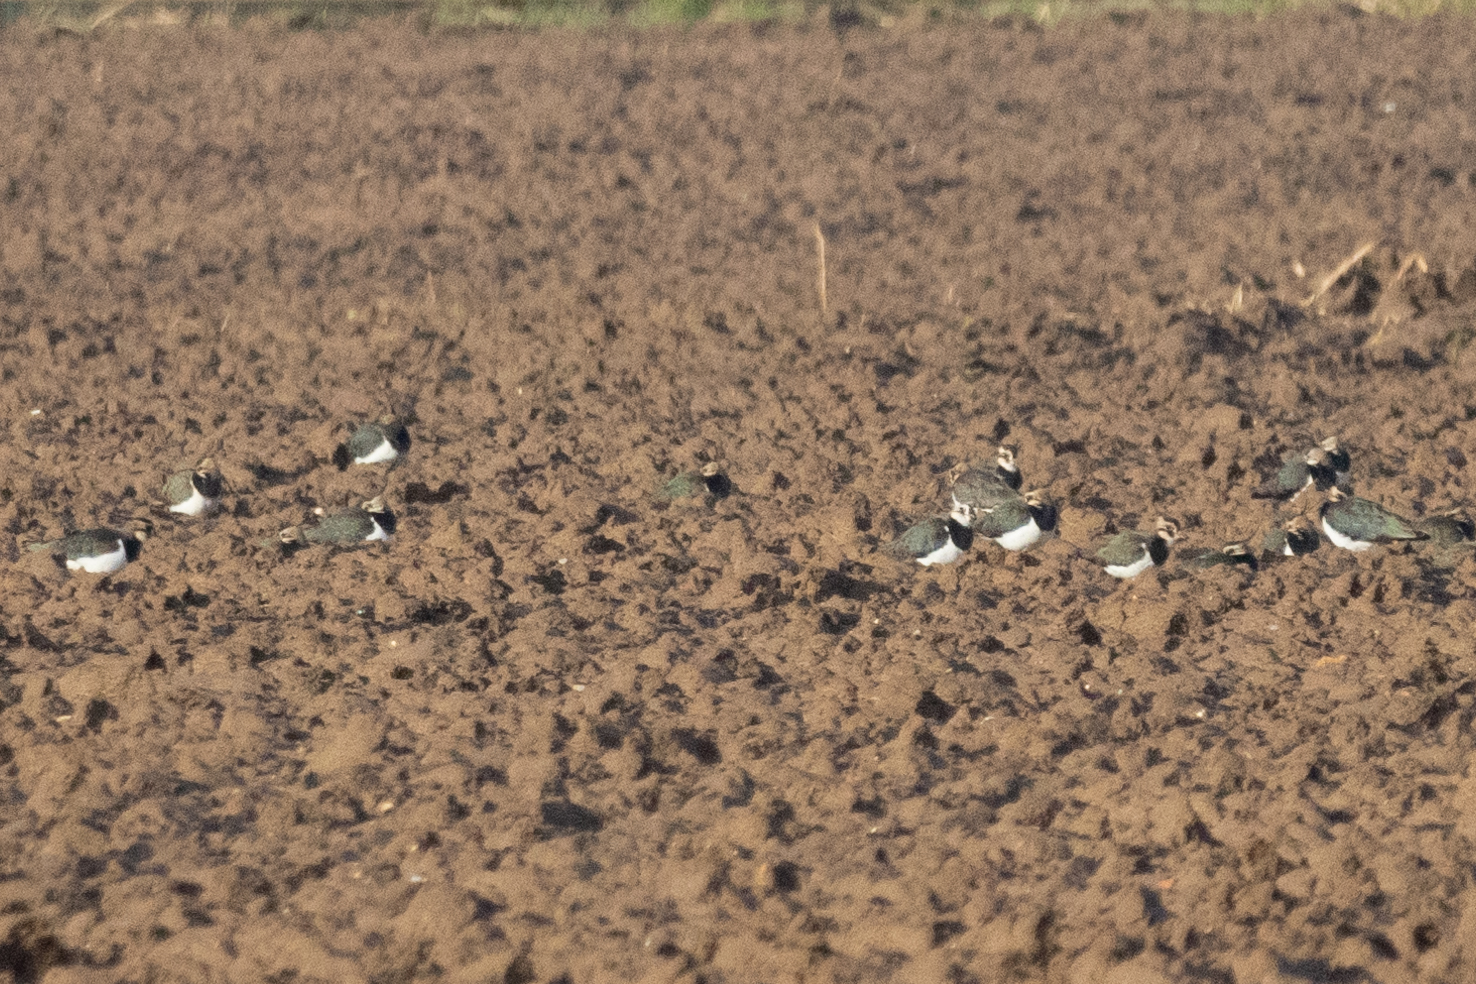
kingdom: Animalia
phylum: Chordata
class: Aves
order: Charadriiformes
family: Charadriidae
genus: Vanellus
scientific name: Vanellus vanellus
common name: Northern lapwing
